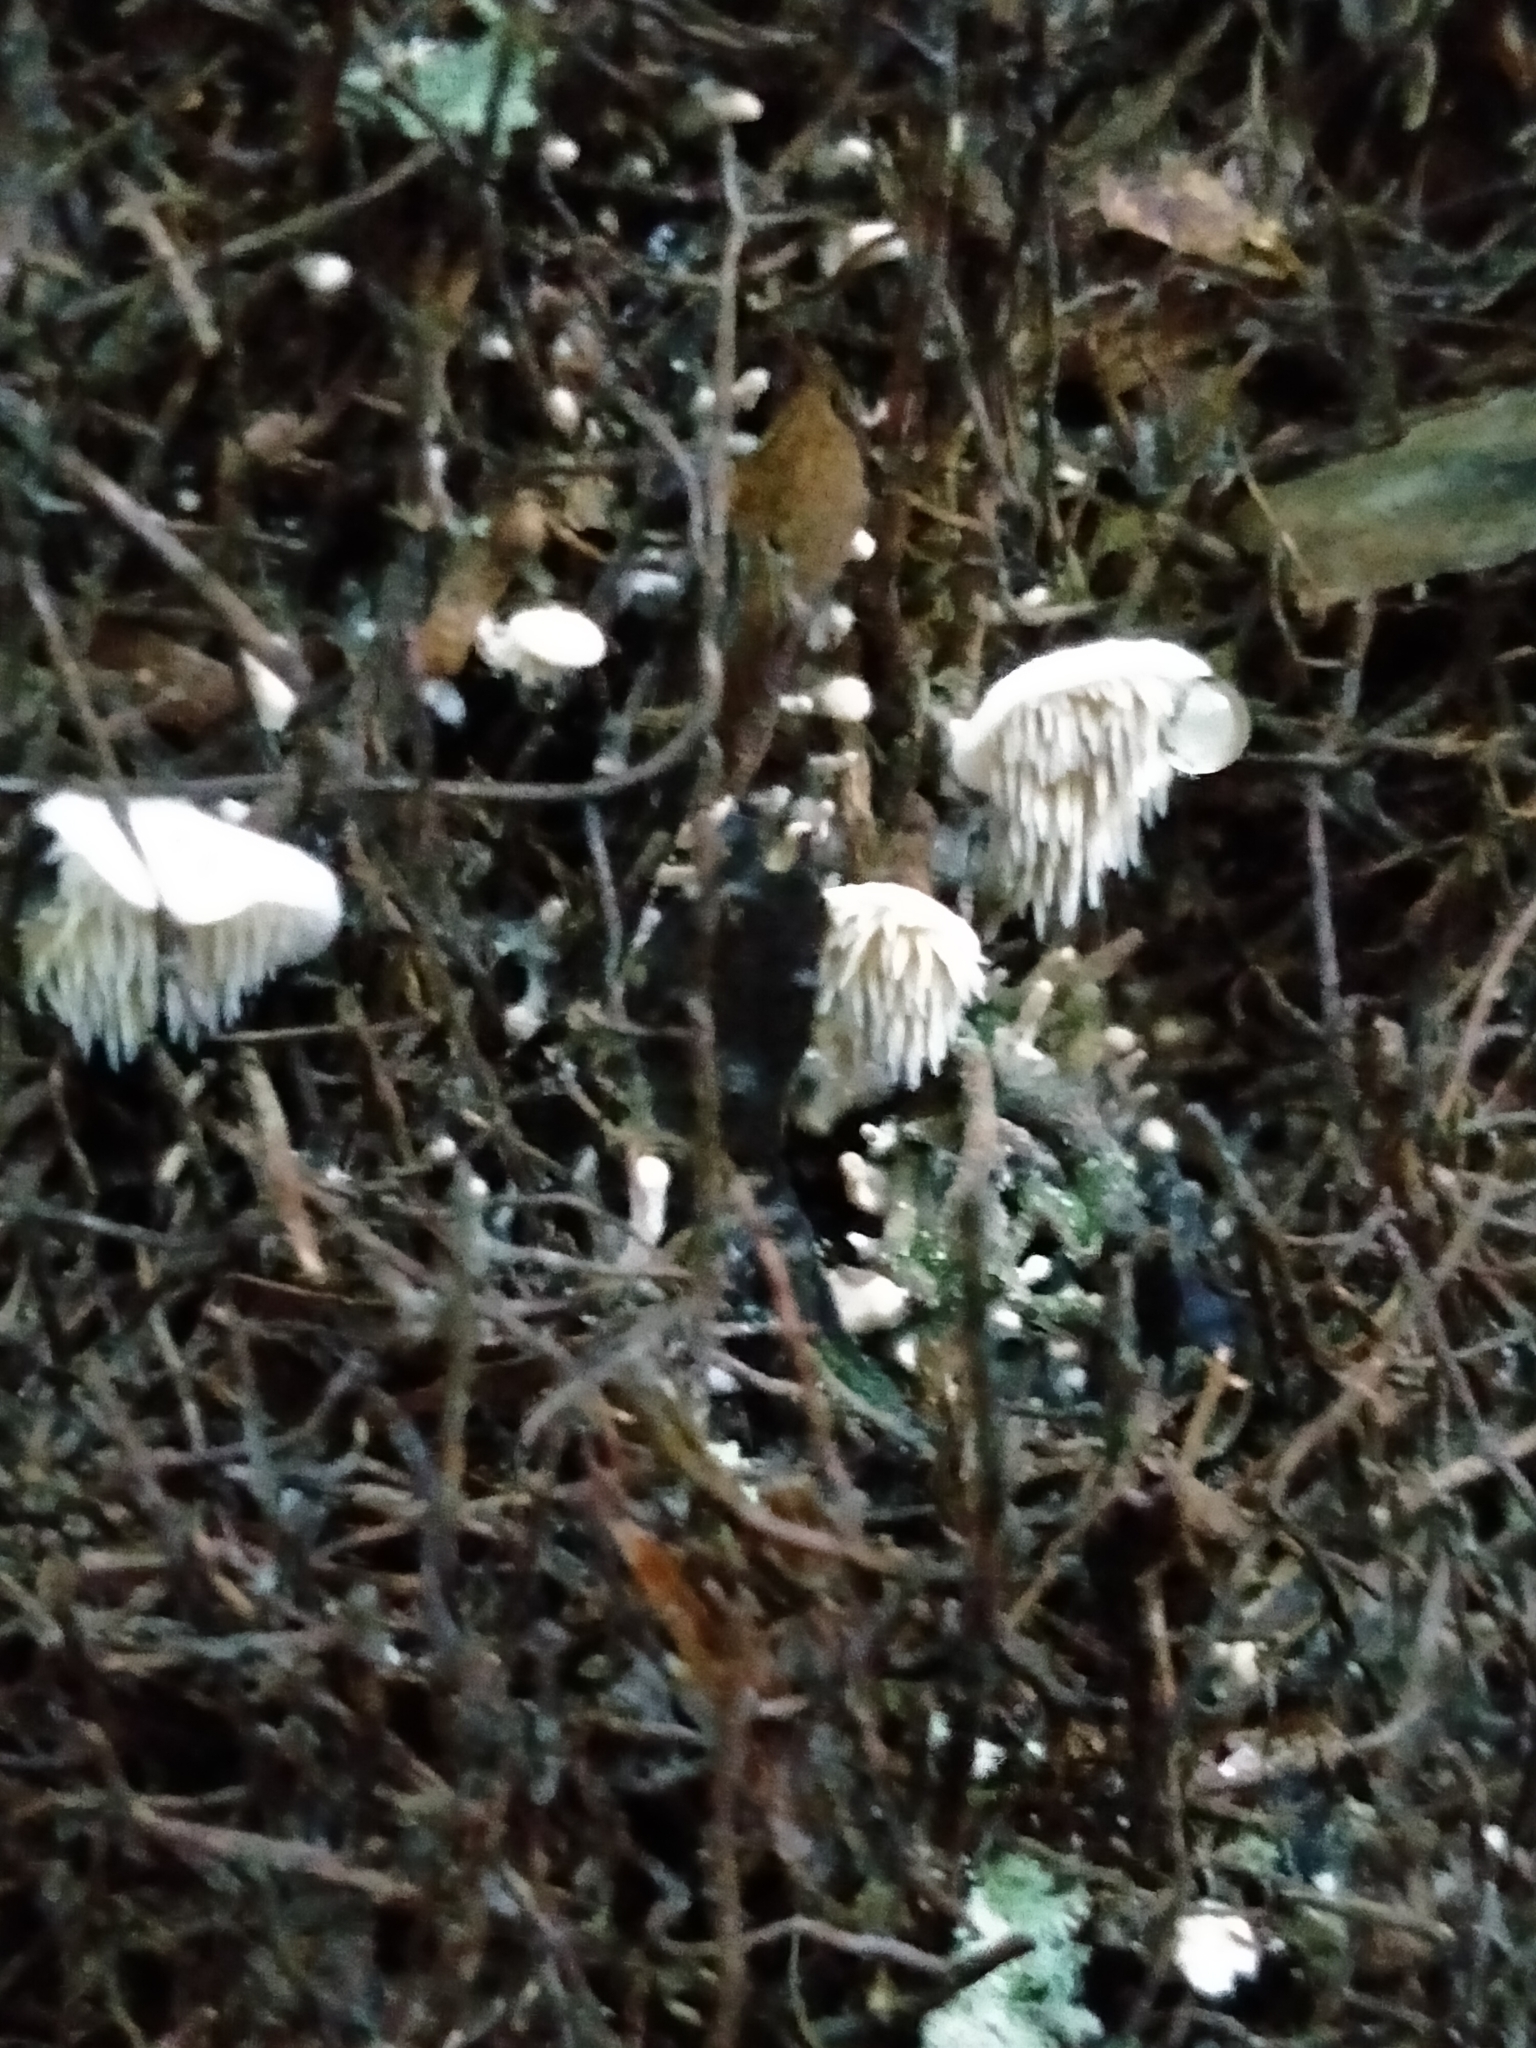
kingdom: Fungi
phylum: Basidiomycota
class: Agaricomycetes
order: Gomphales
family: Clavariadelphaceae
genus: Beenakia
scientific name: Beenakia dacostae
